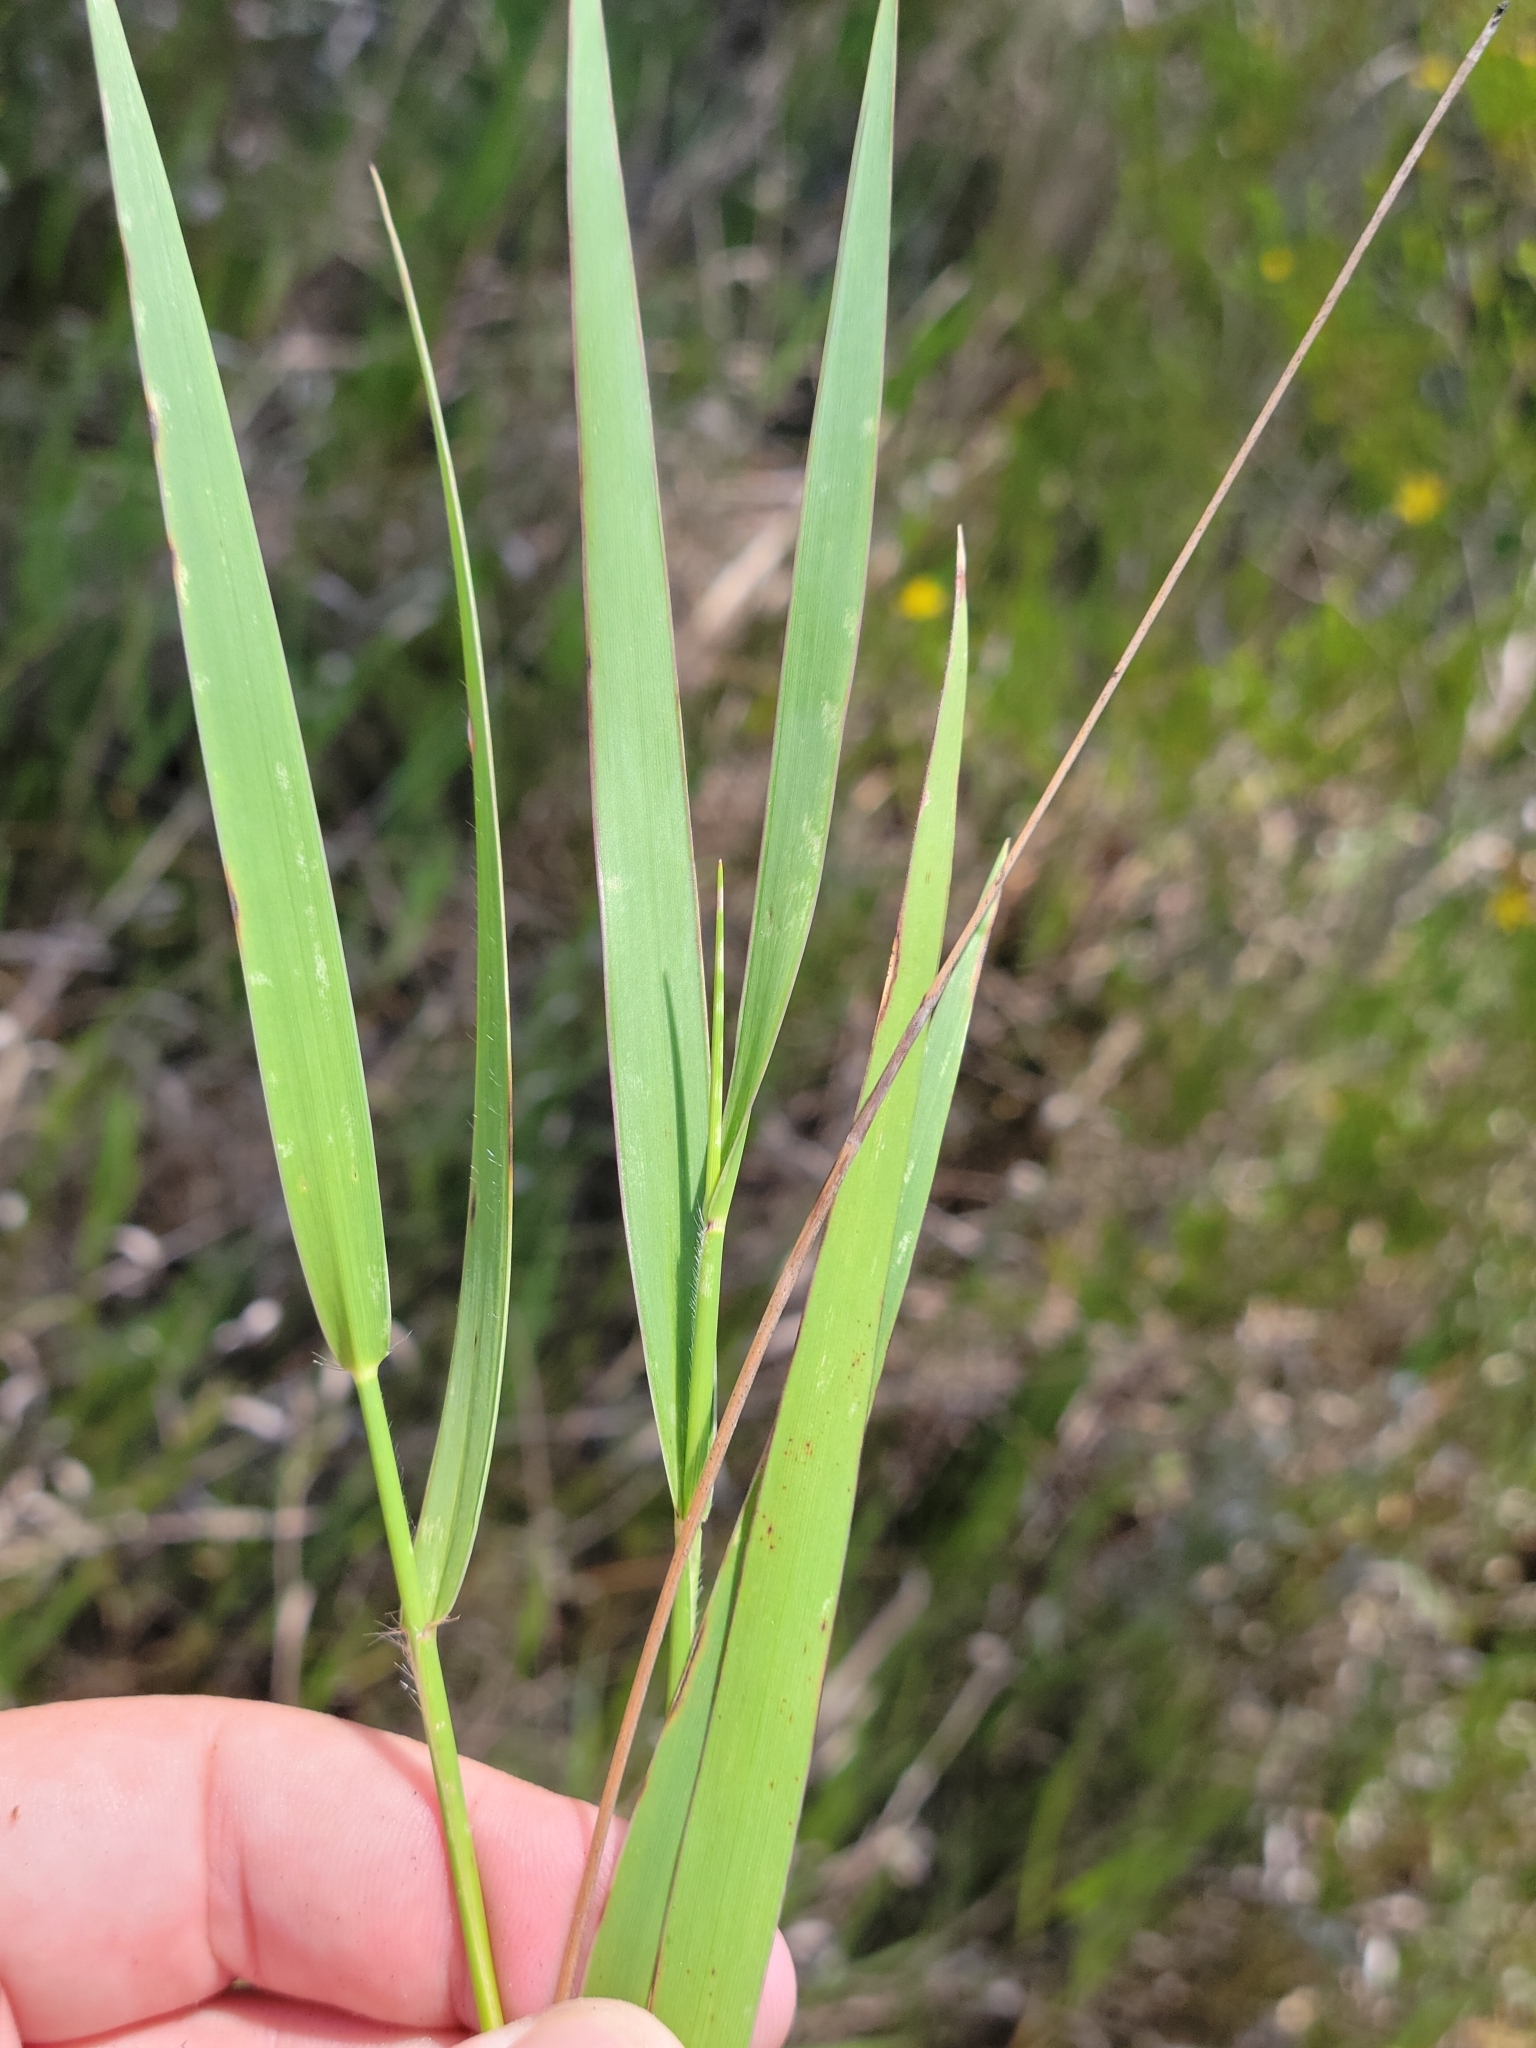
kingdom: Plantae
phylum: Tracheophyta
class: Liliopsida
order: Poales
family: Poaceae
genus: Amphicarpum
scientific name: Amphicarpum muehlenbergianum
